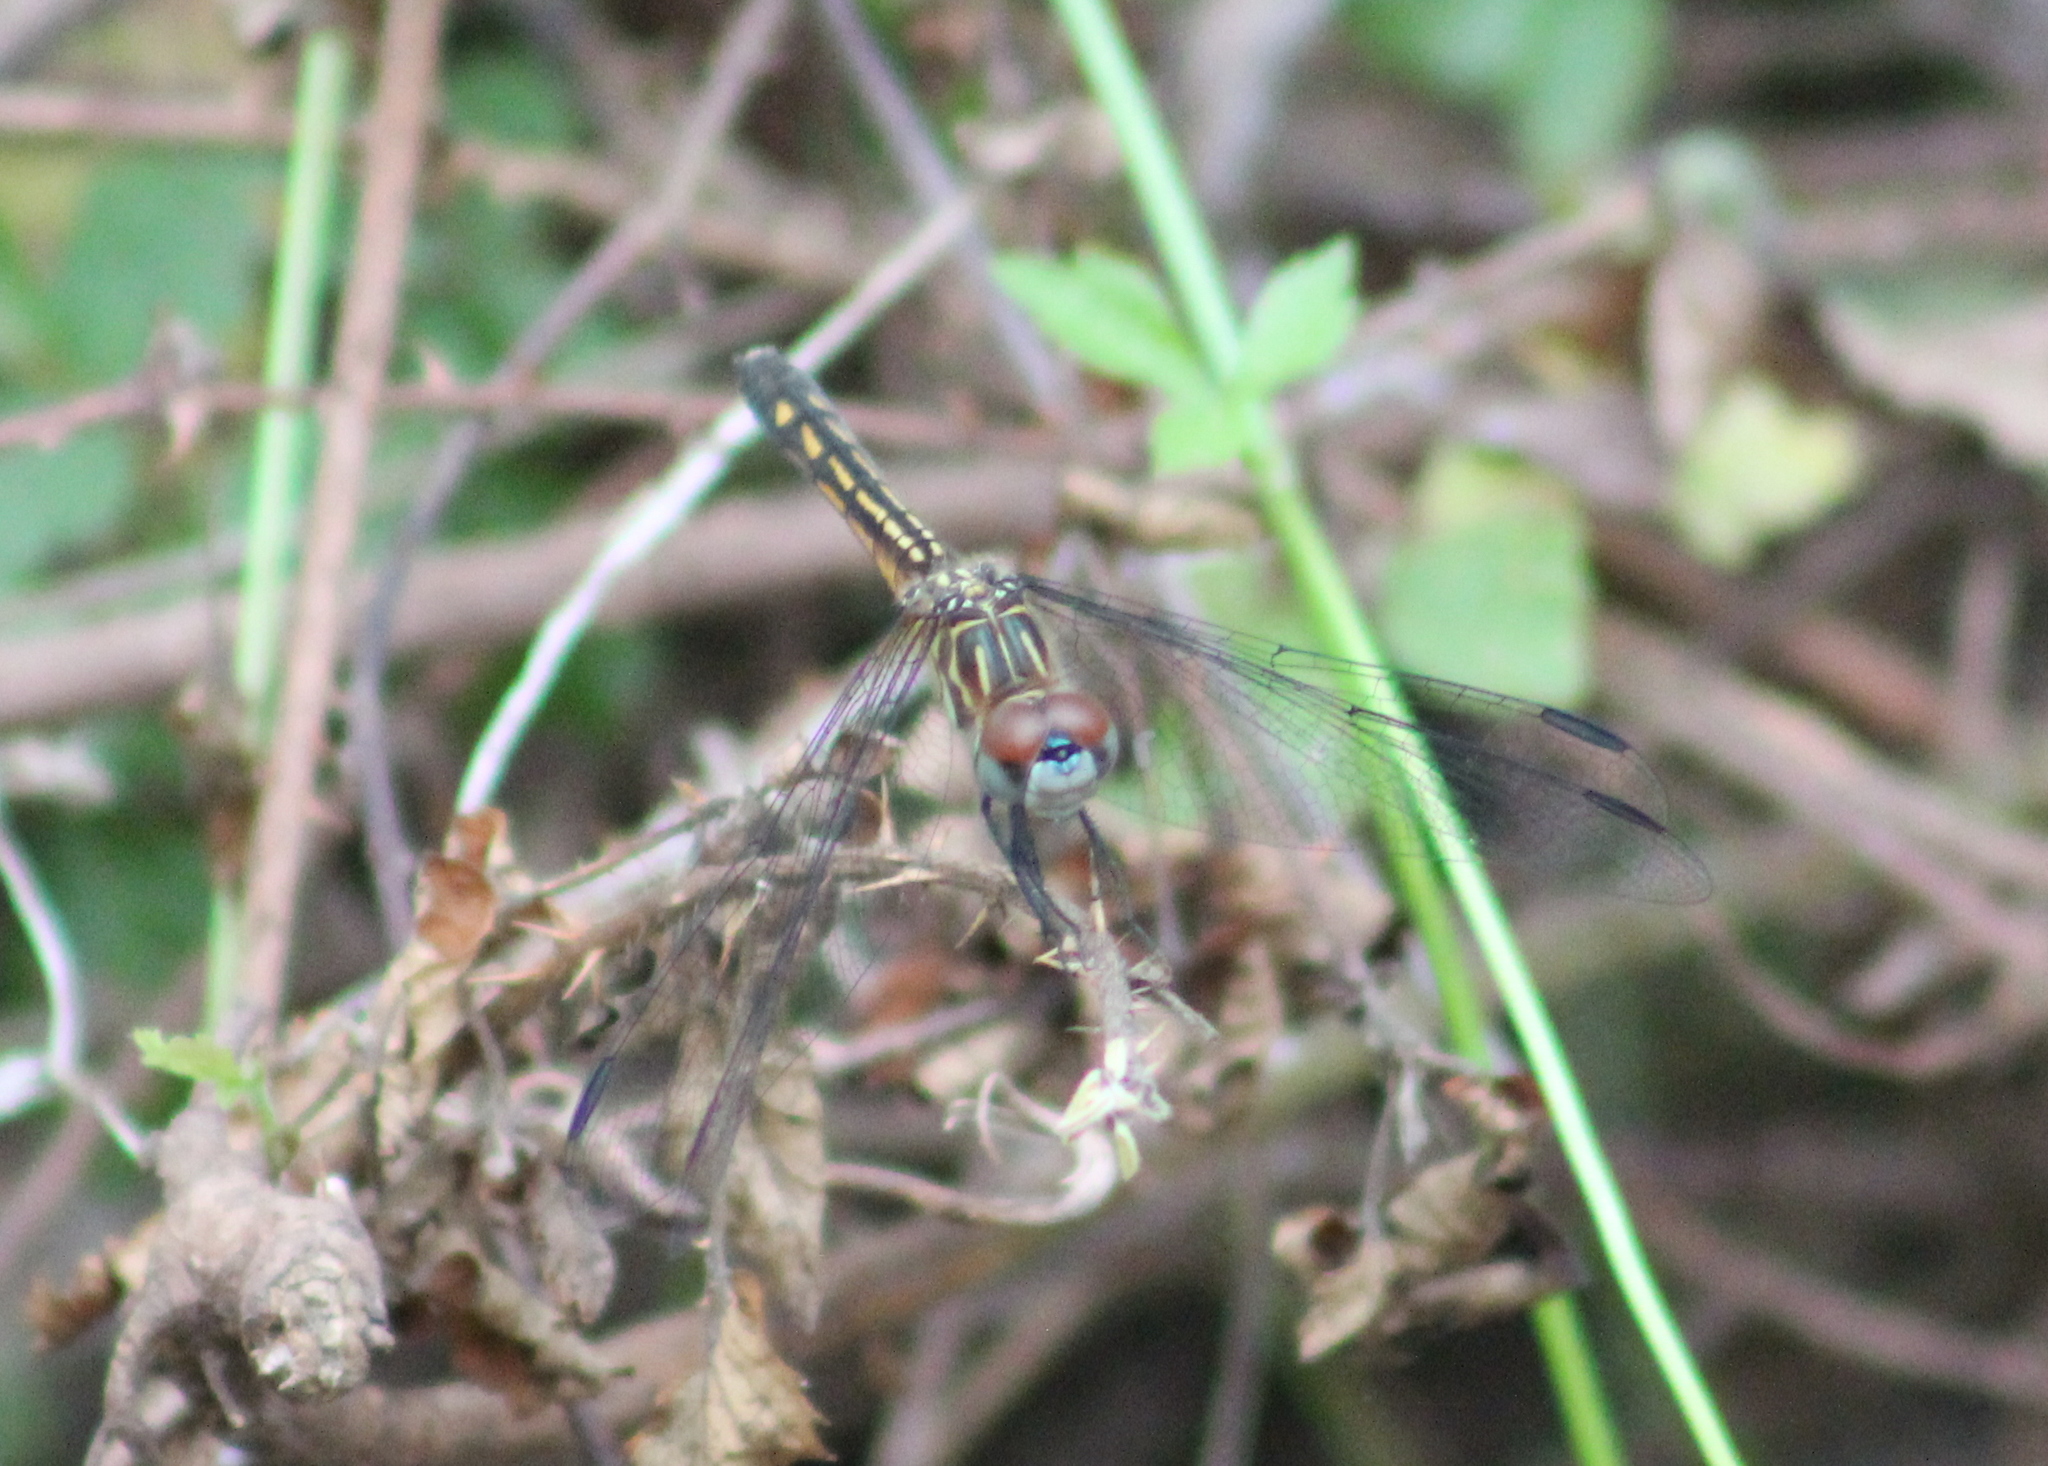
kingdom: Animalia
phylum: Arthropoda
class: Insecta
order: Odonata
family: Libellulidae
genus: Pachydiplax
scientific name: Pachydiplax longipennis
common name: Blue dasher
